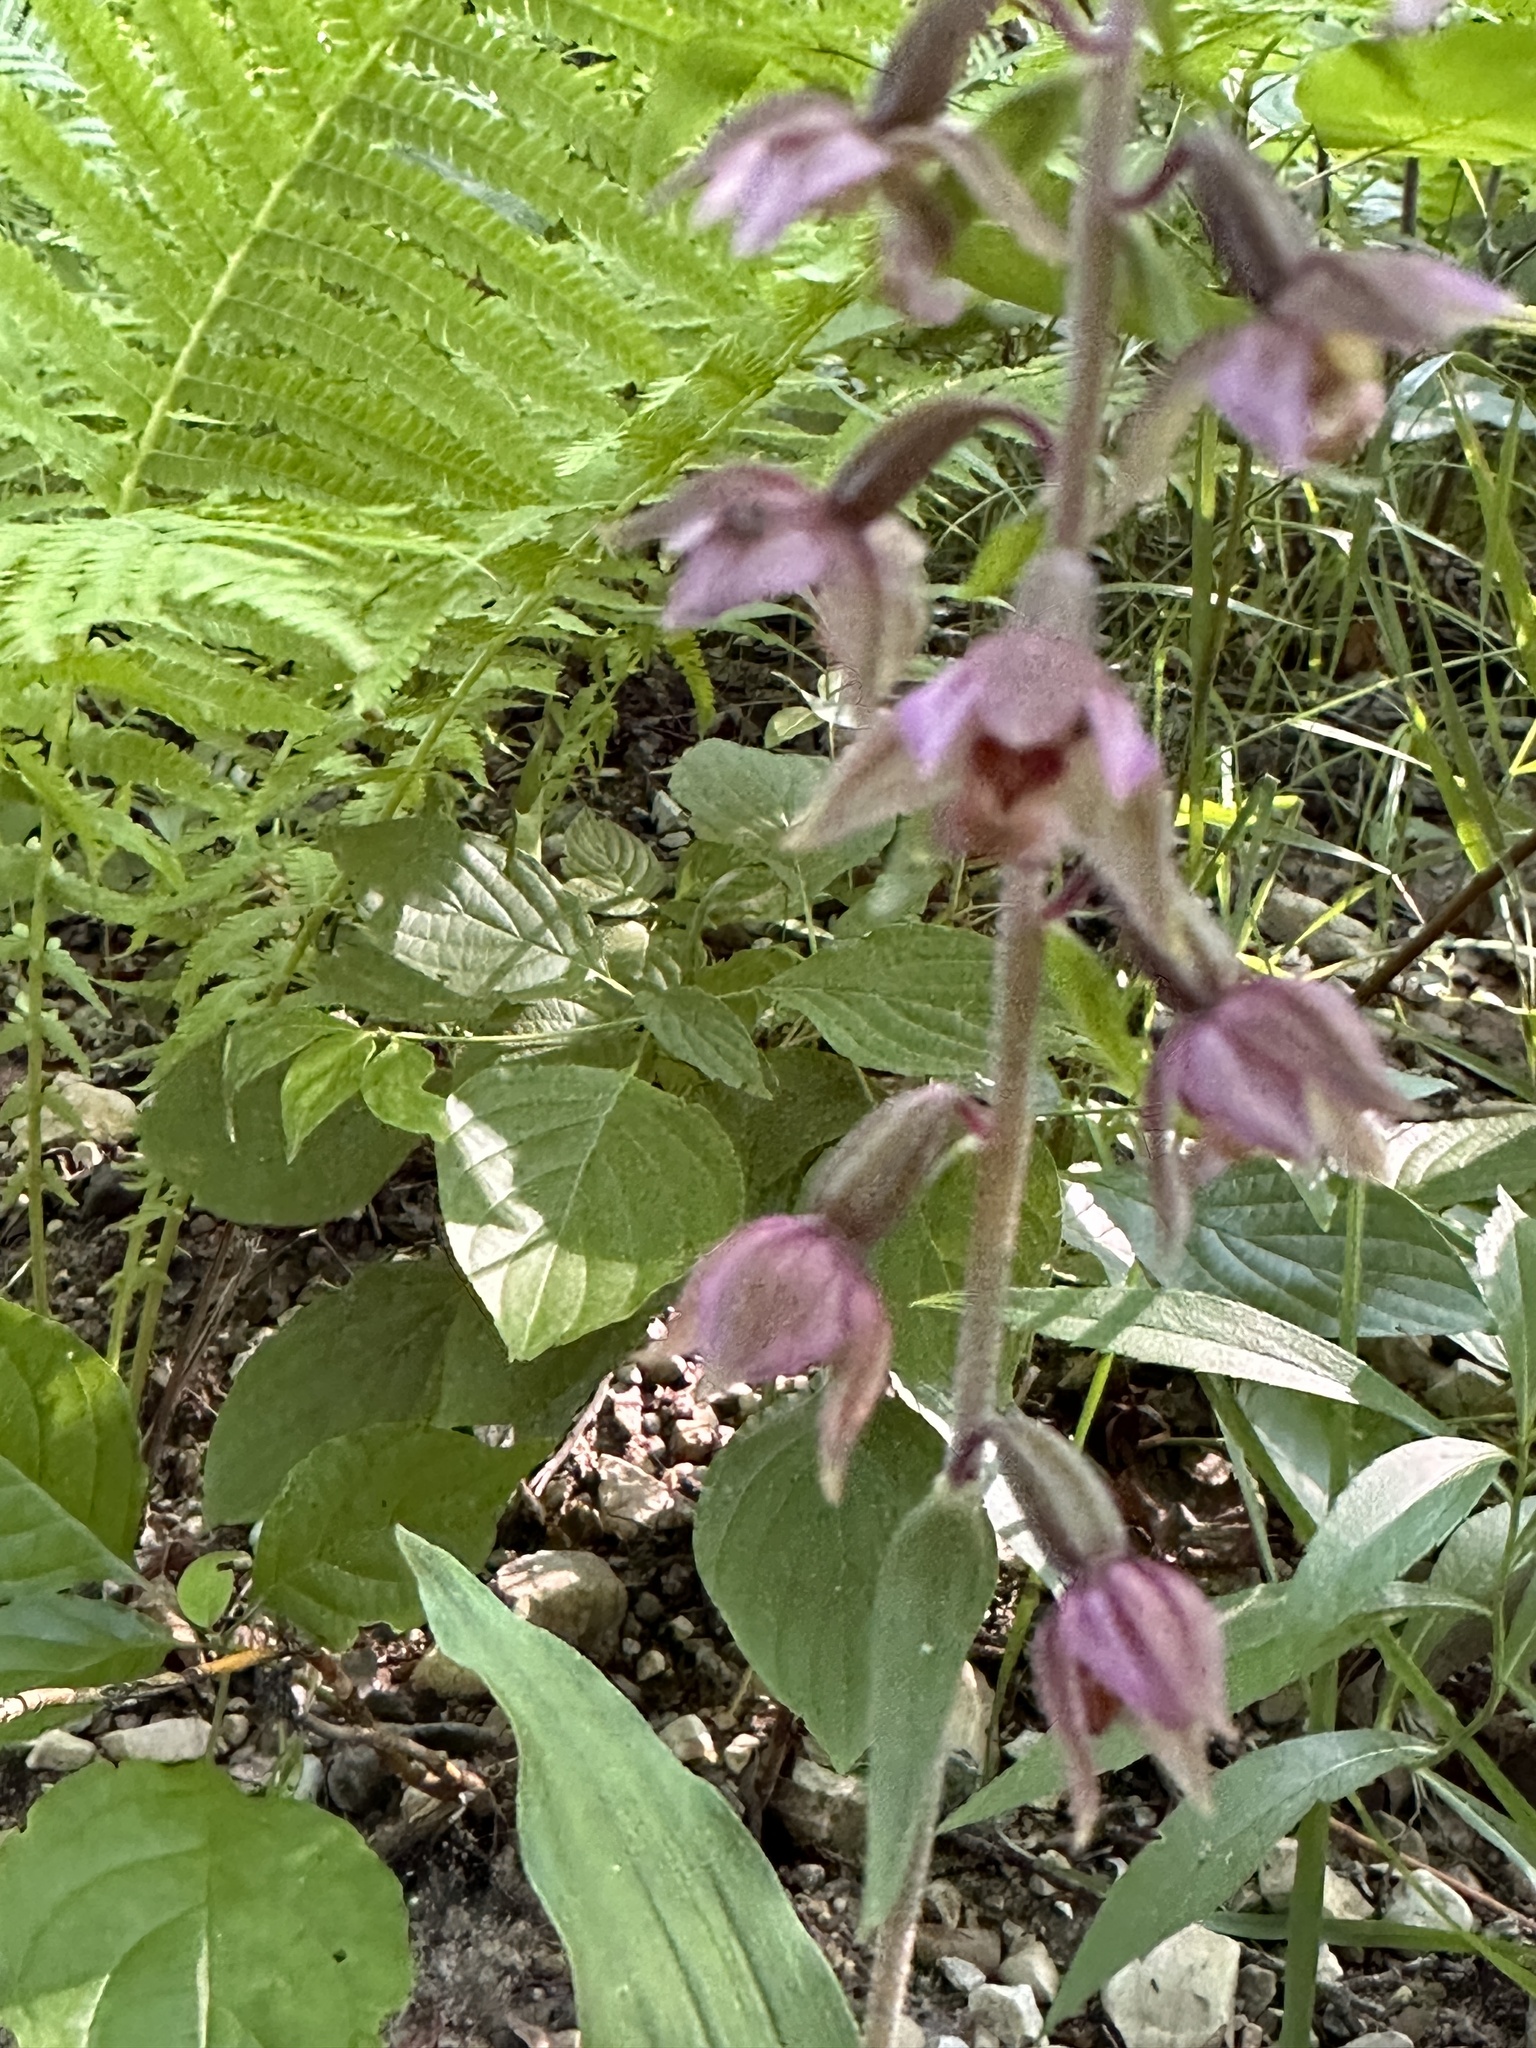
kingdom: Plantae
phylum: Tracheophyta
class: Liliopsida
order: Asparagales
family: Orchidaceae
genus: Epipactis
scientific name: Epipactis helleborine
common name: Broad-leaved helleborine
